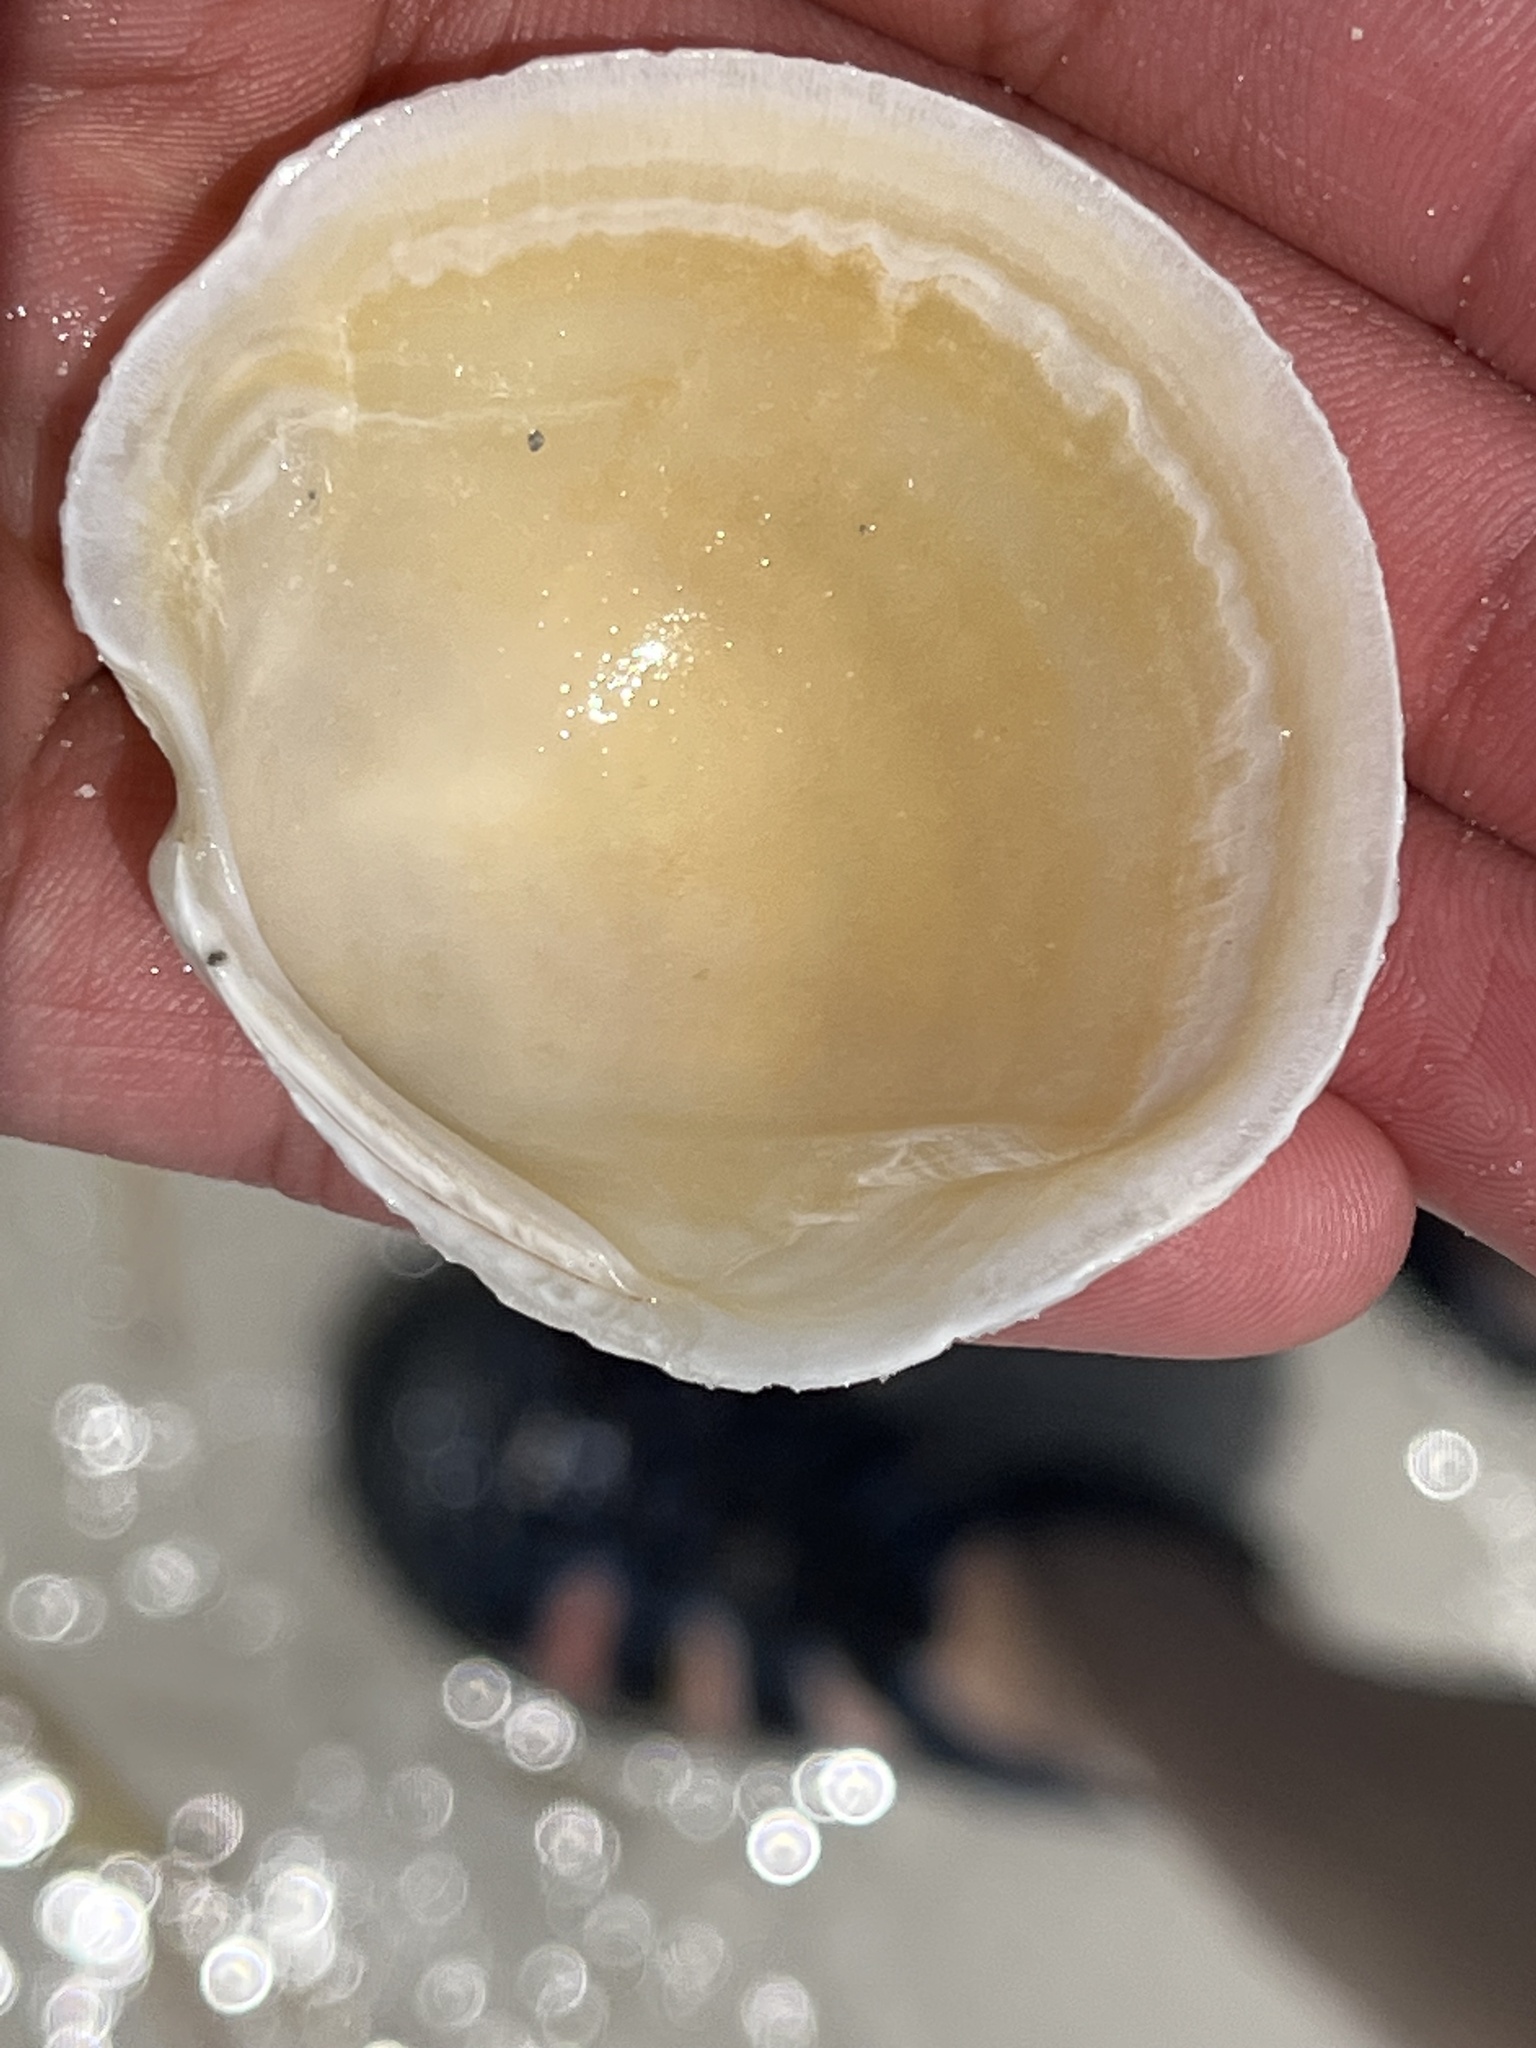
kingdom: Animalia
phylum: Mollusca
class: Bivalvia
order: Lucinida
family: Lucinidae
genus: Anodontia
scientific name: Anodontia alba
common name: Buttercup lucine
